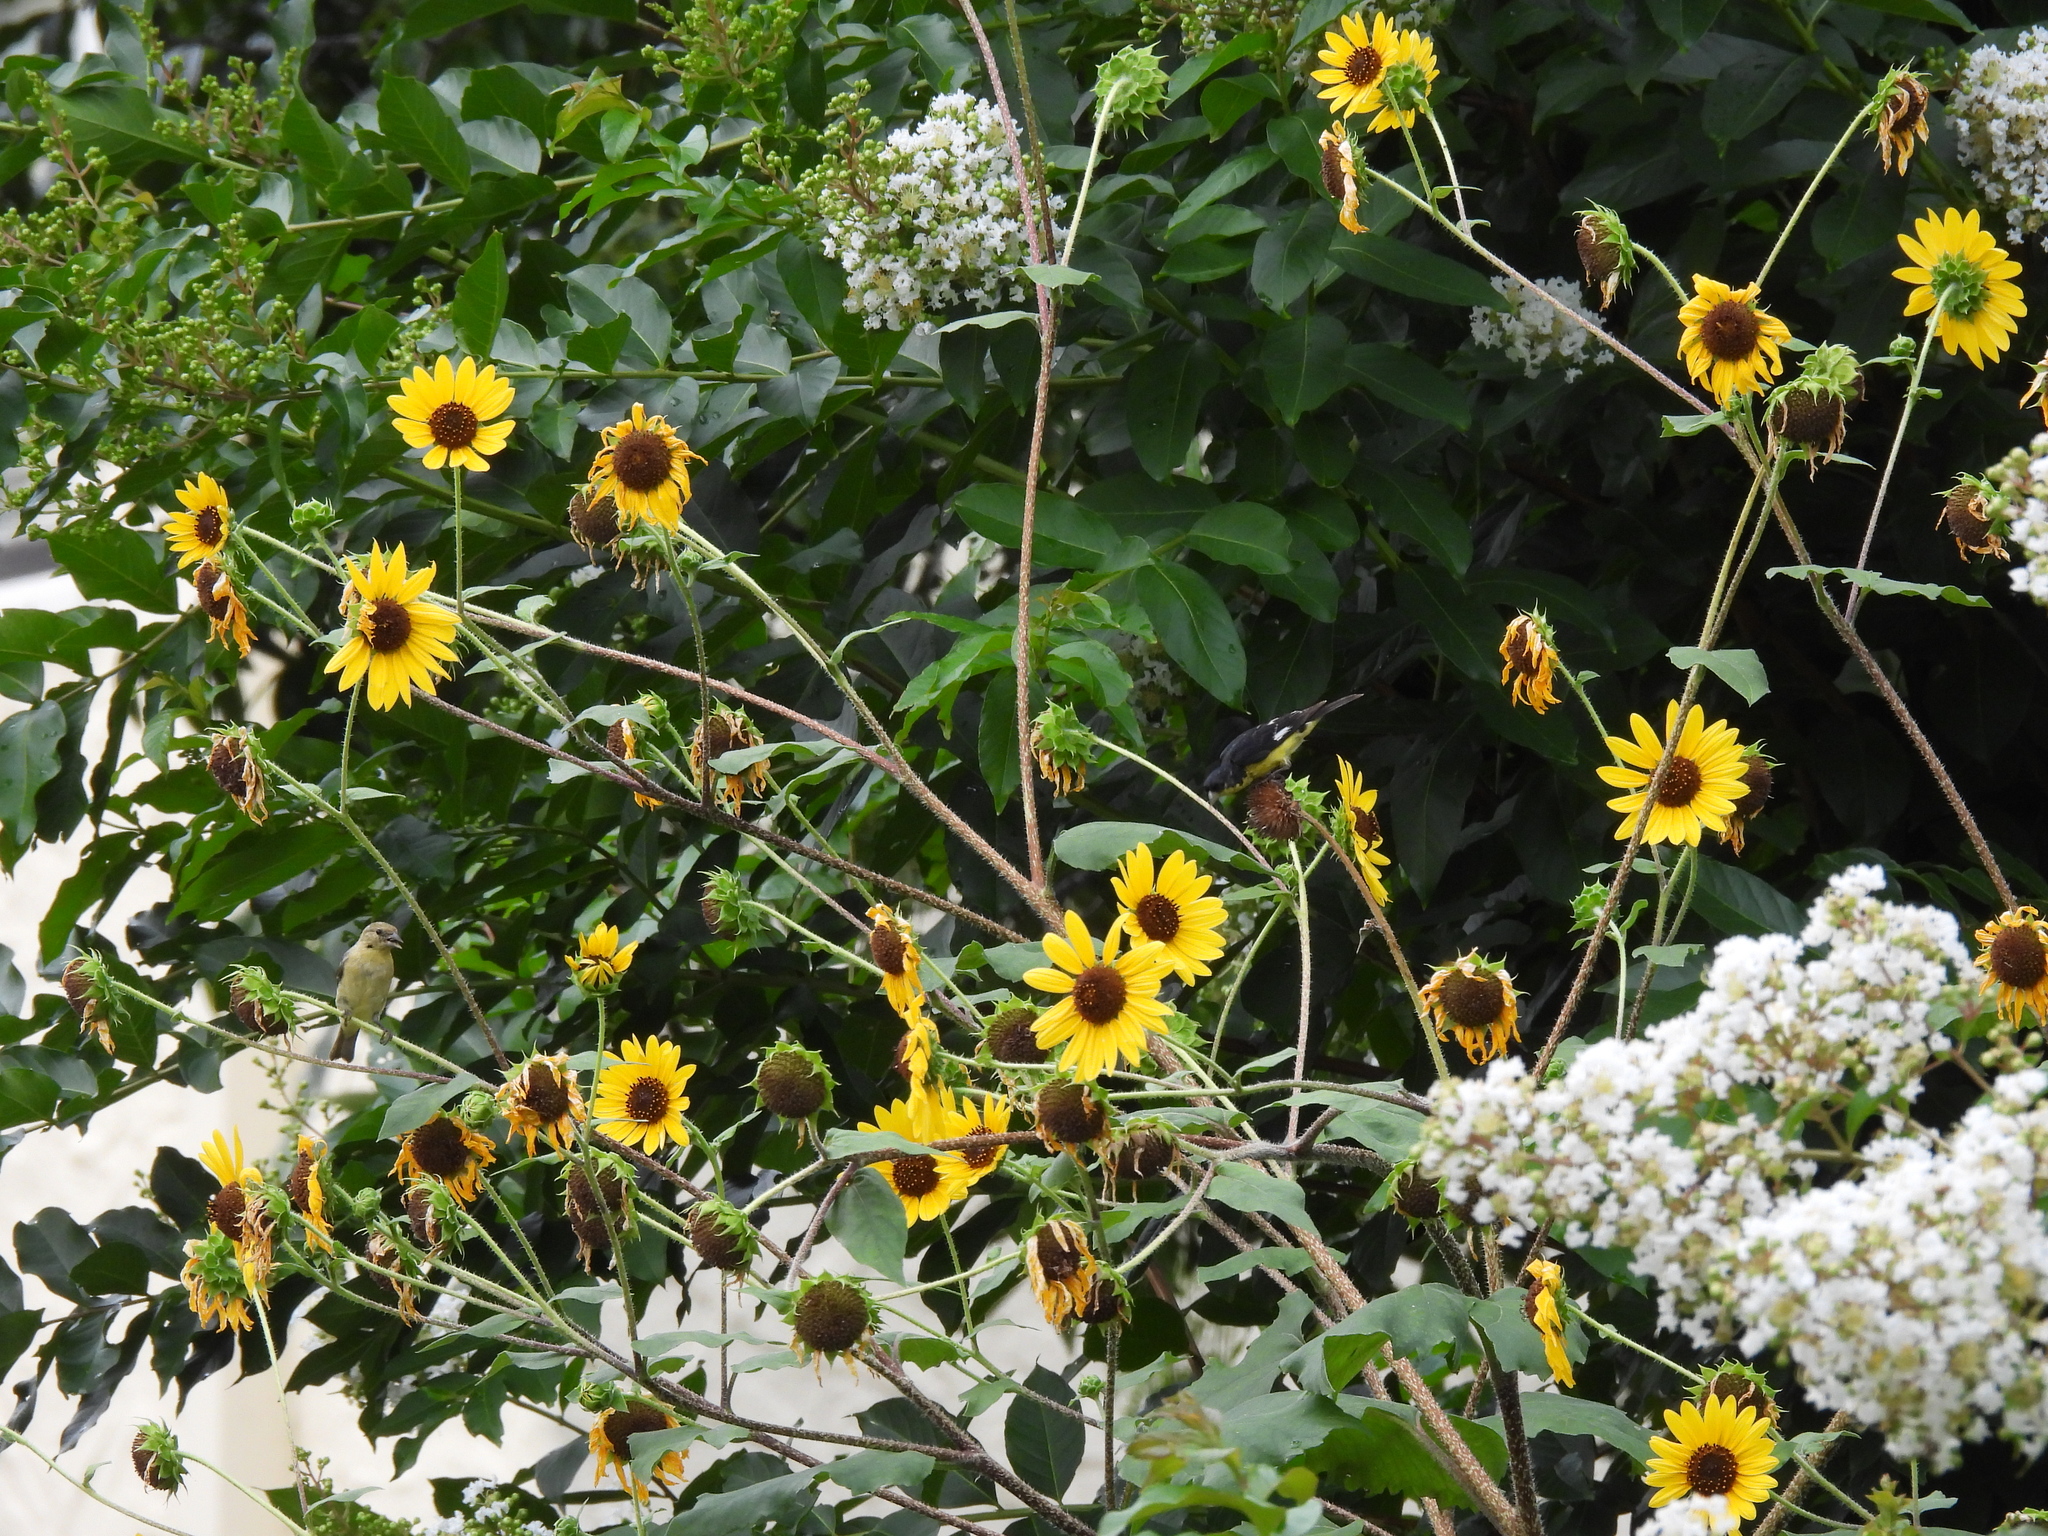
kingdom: Animalia
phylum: Chordata
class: Aves
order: Passeriformes
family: Fringillidae
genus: Spinus
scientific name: Spinus psaltria
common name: Lesser goldfinch
